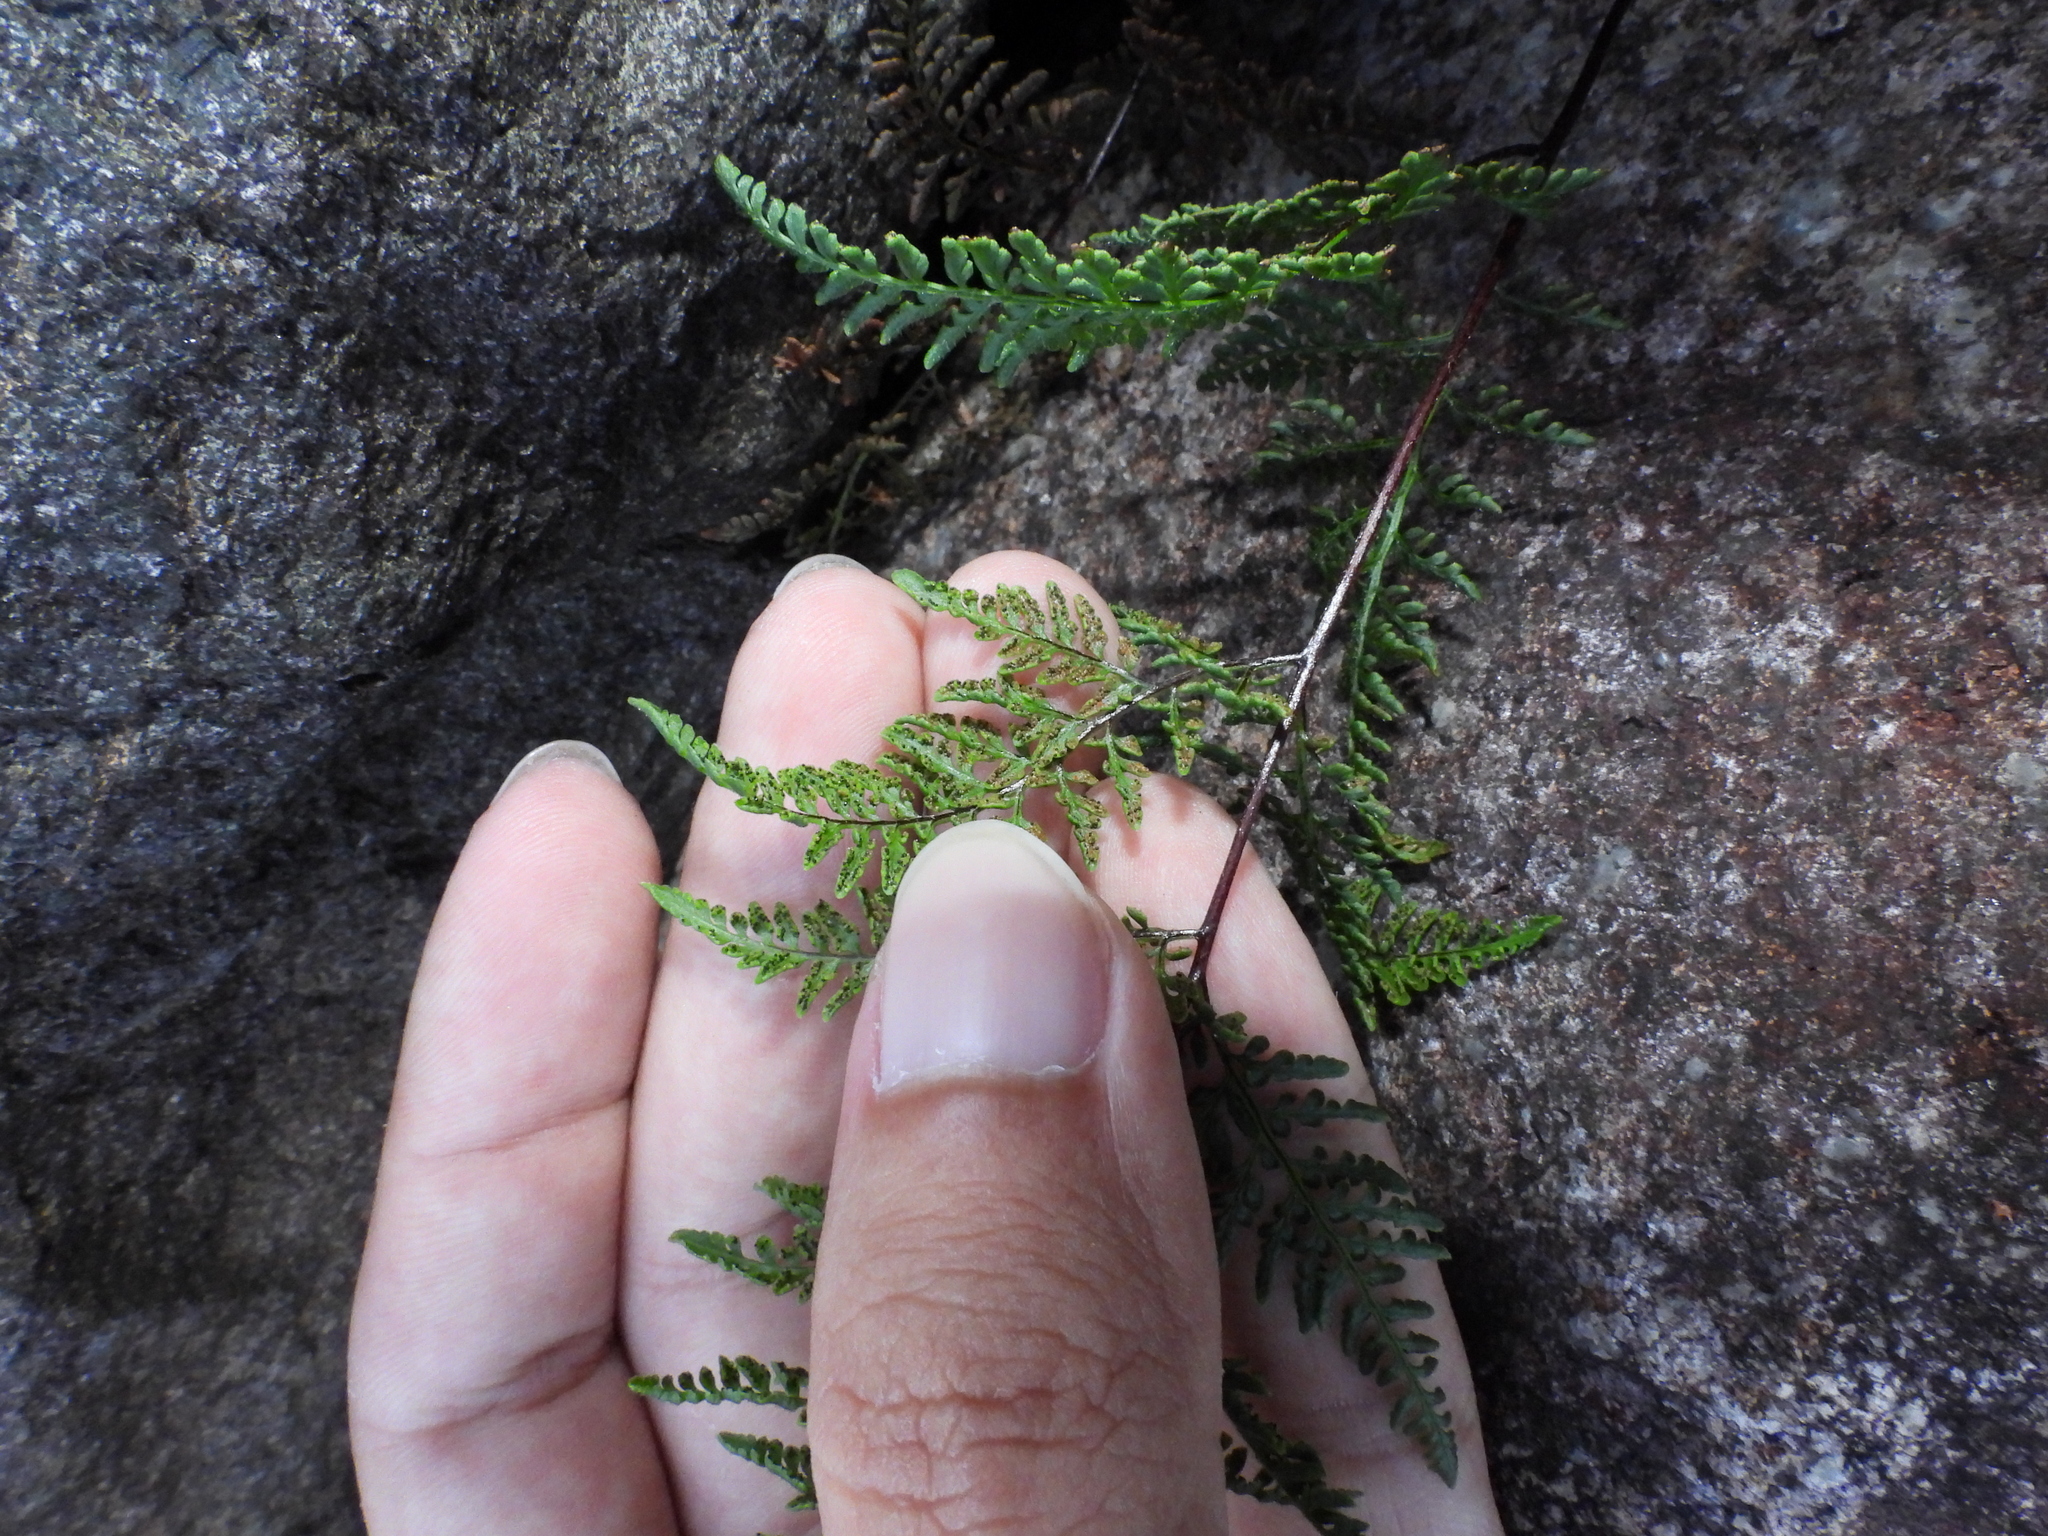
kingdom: Plantae
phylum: Tracheophyta
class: Polypodiopsida
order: Polypodiales
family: Pteridaceae
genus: Cheilanthes
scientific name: Cheilanthes tenuifolia
